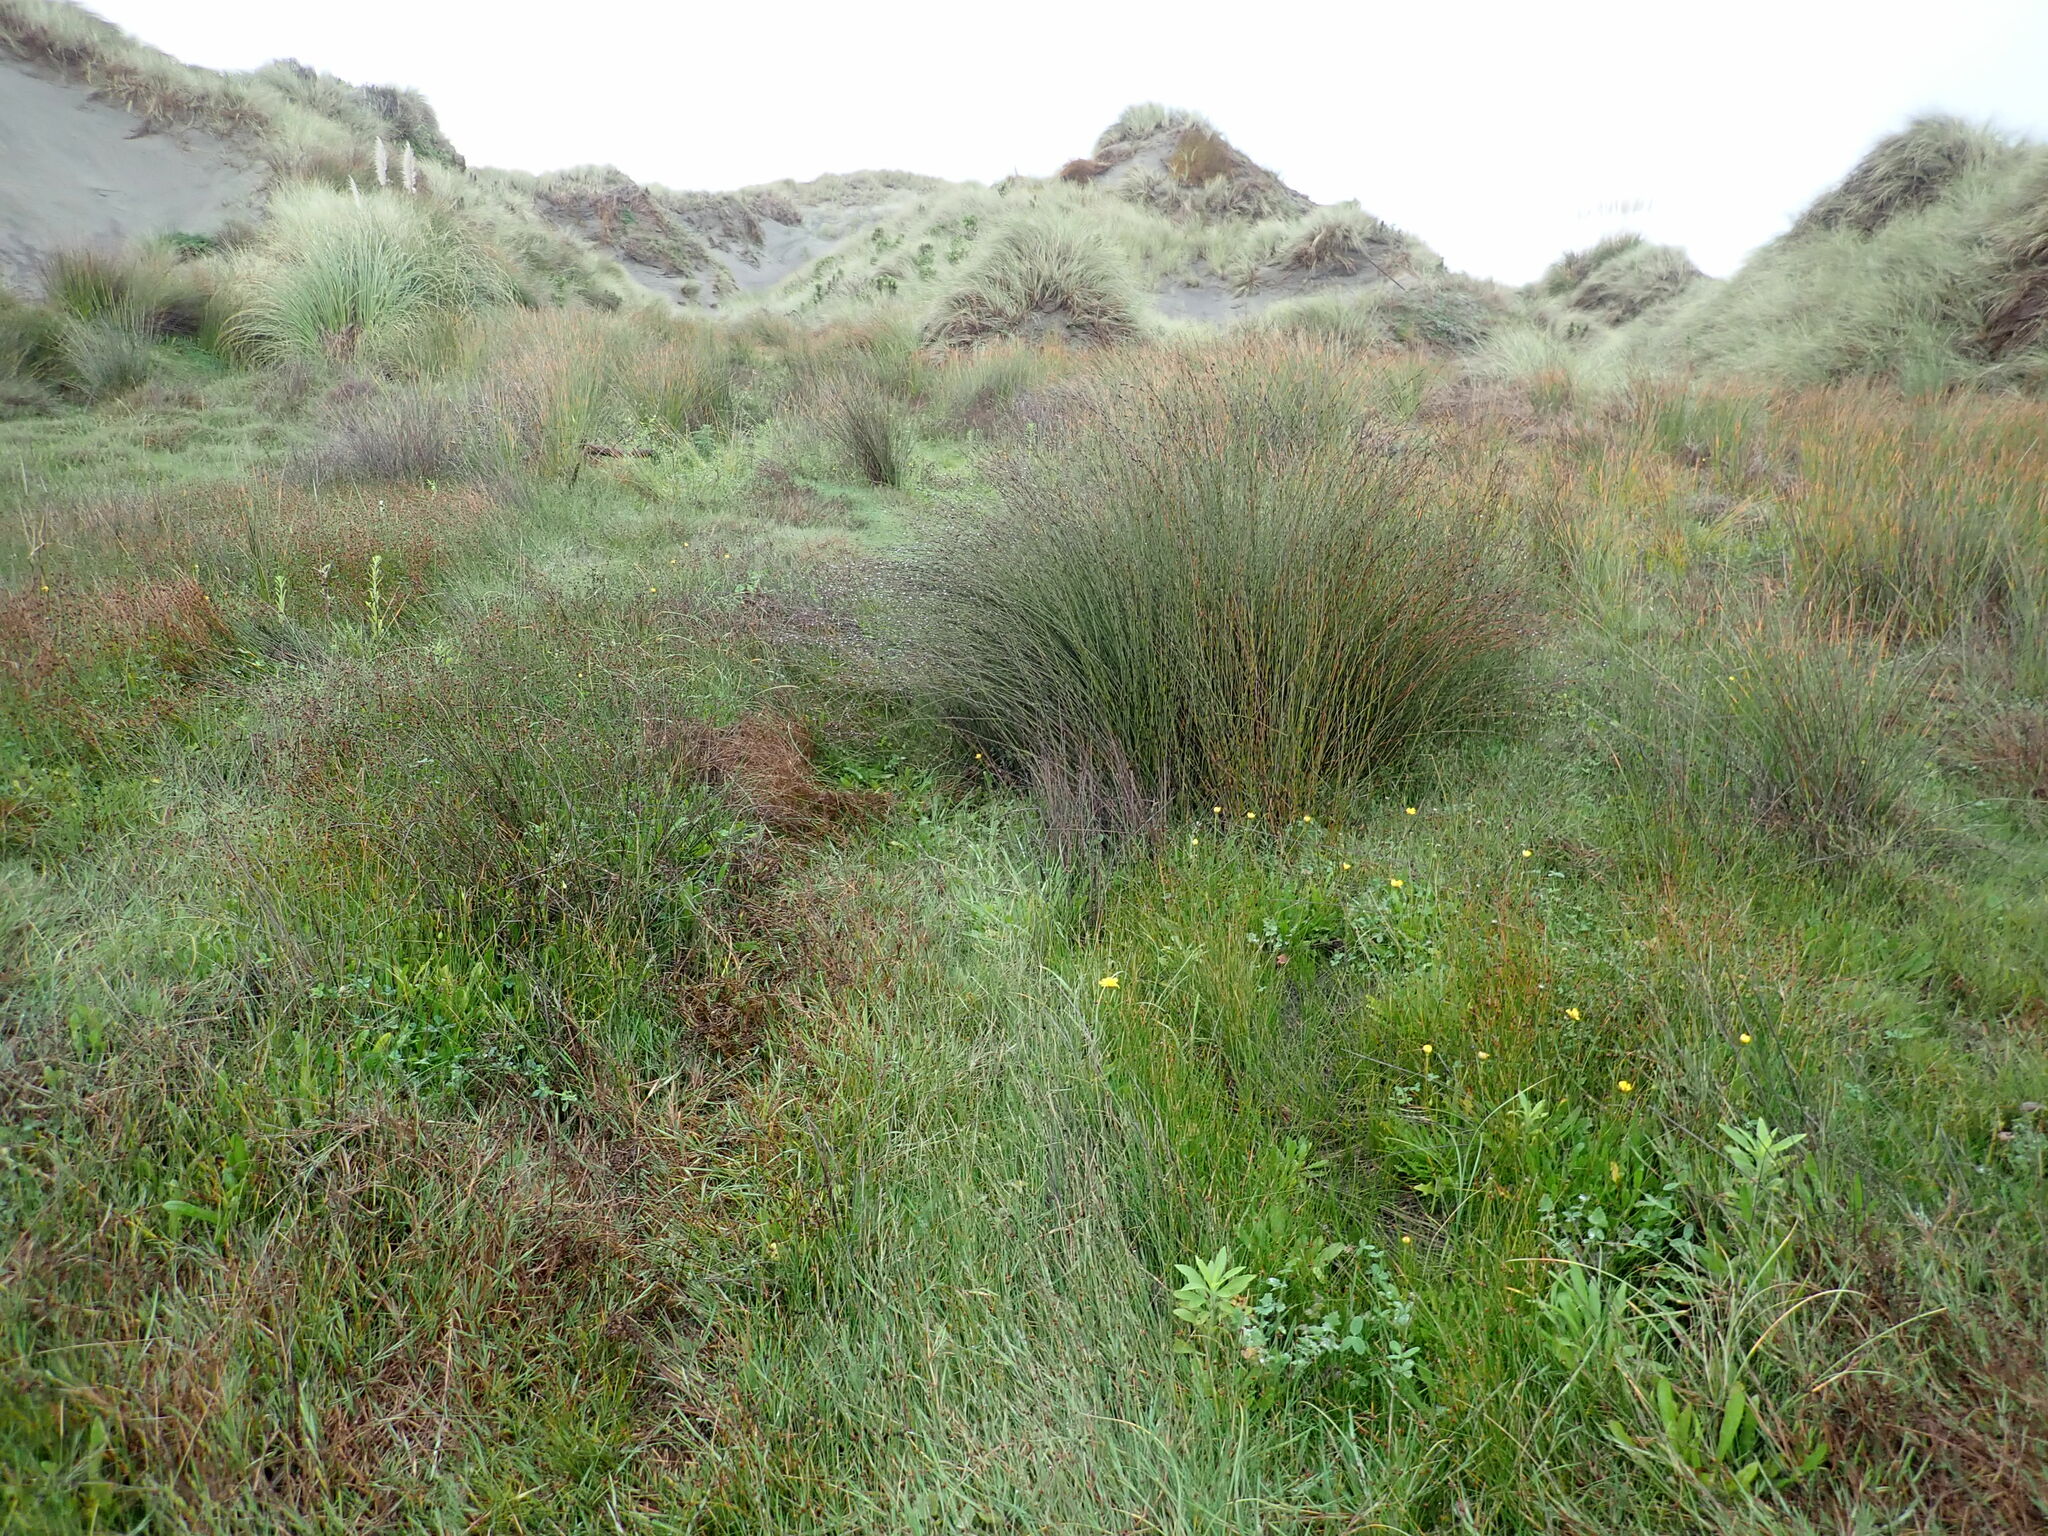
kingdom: Plantae
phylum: Tracheophyta
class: Liliopsida
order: Poales
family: Restionaceae
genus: Apodasmia
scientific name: Apodasmia similis
